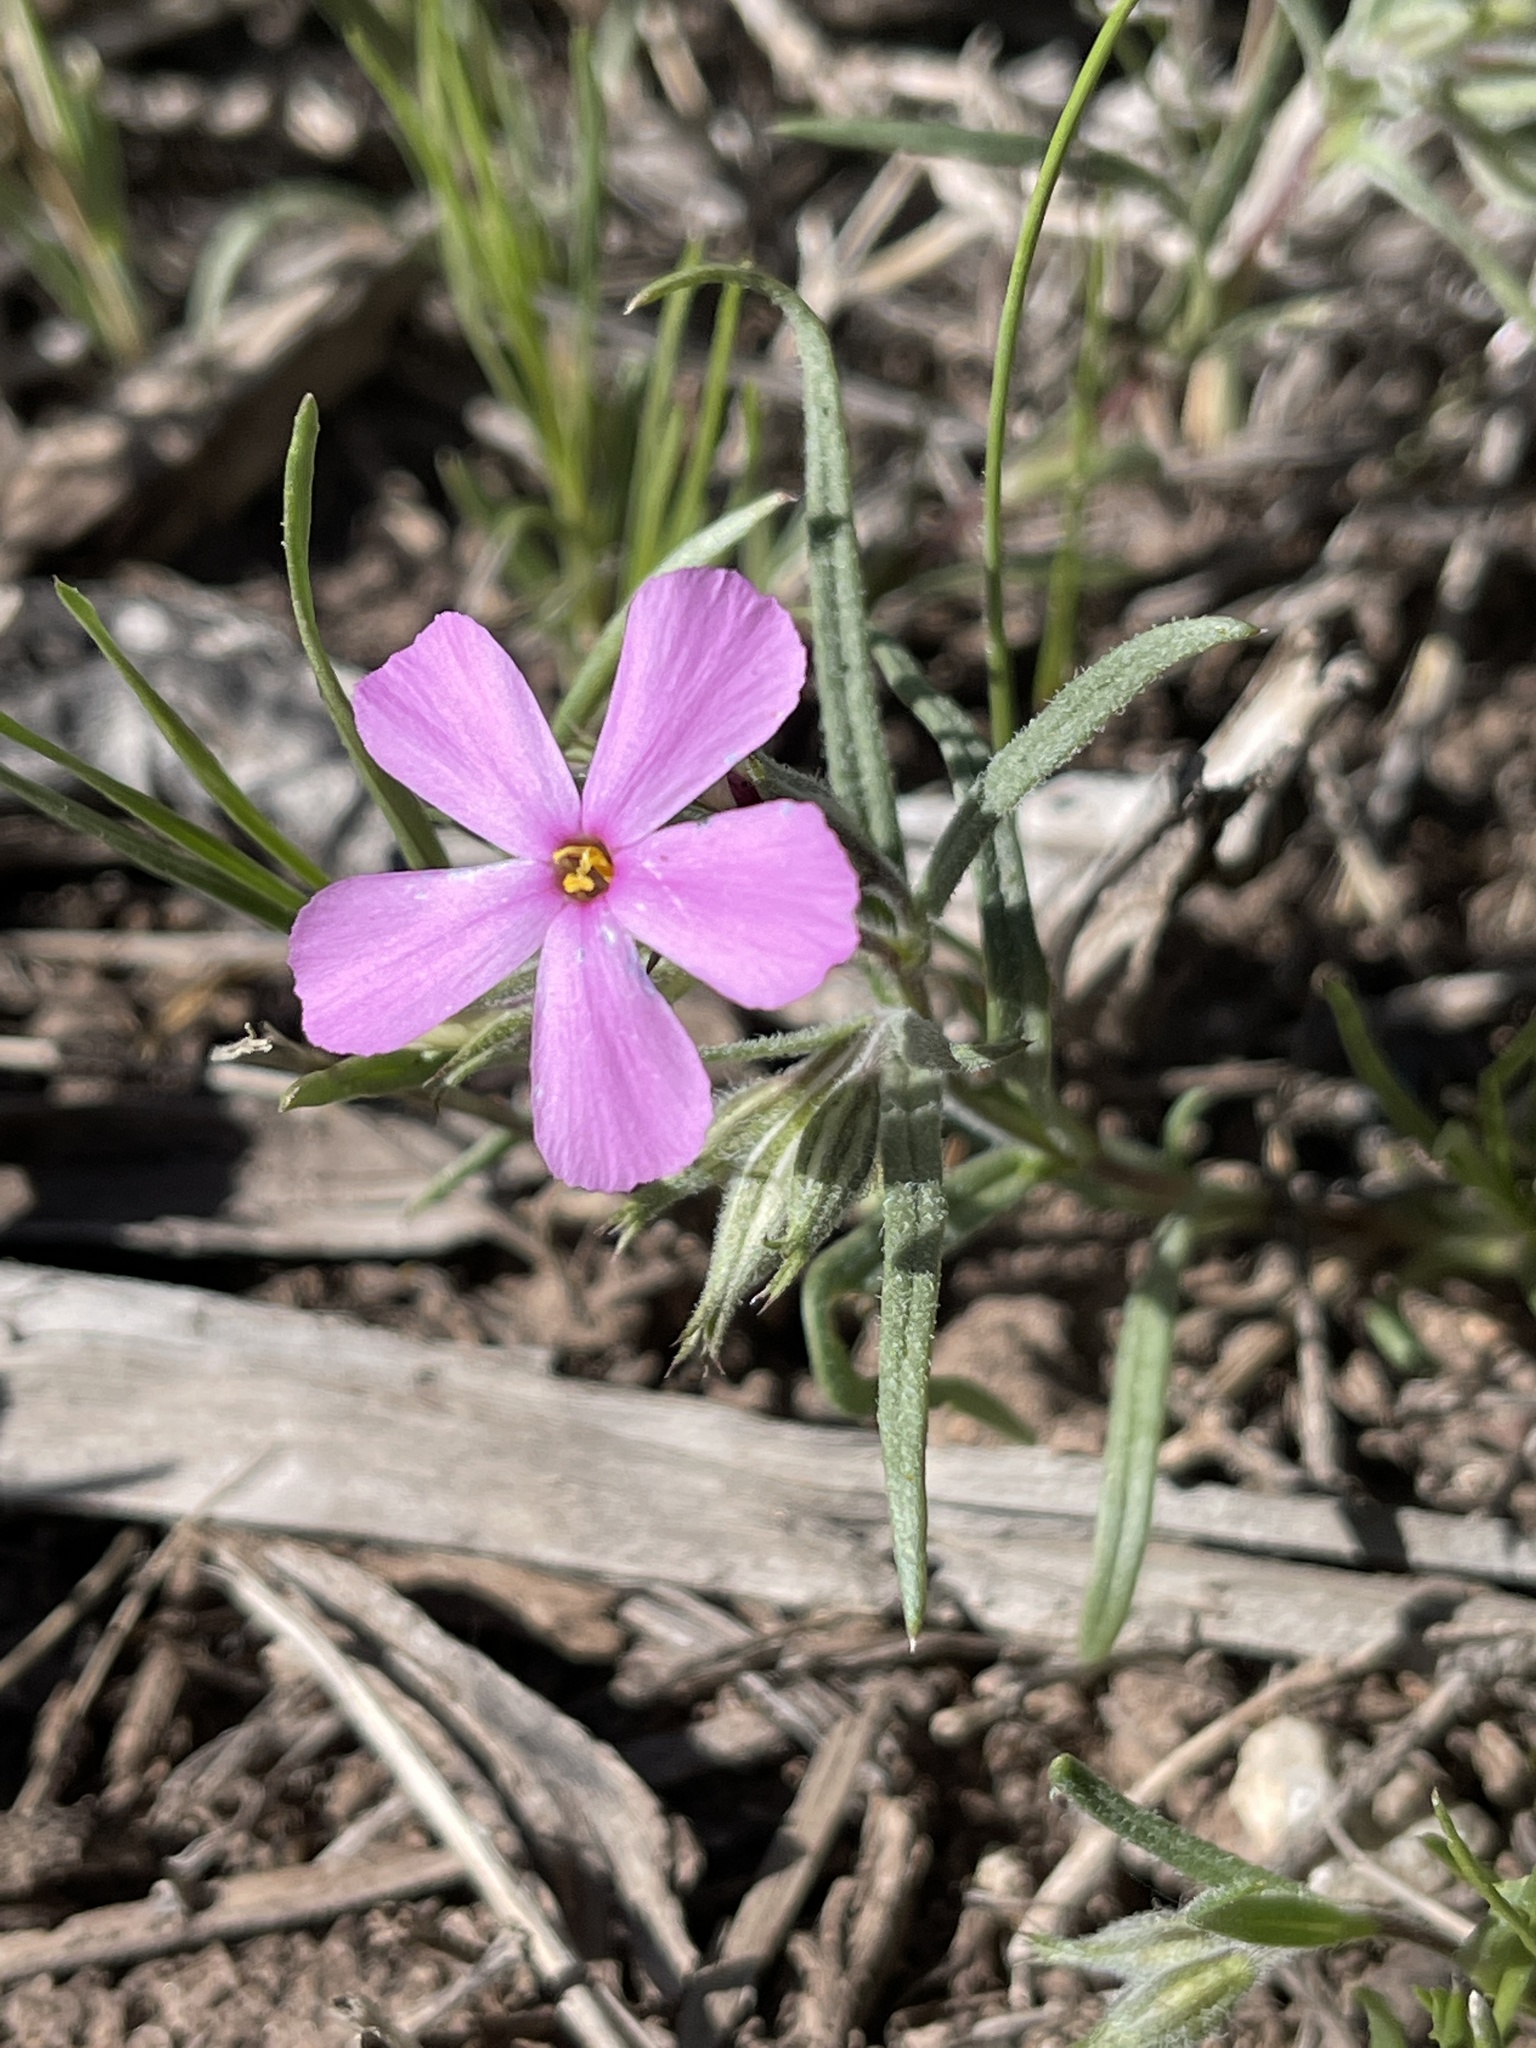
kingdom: Plantae
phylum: Tracheophyta
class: Magnoliopsida
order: Ericales
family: Polemoniaceae
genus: Phlox
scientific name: Phlox longifolia
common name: Longleaf phlox
